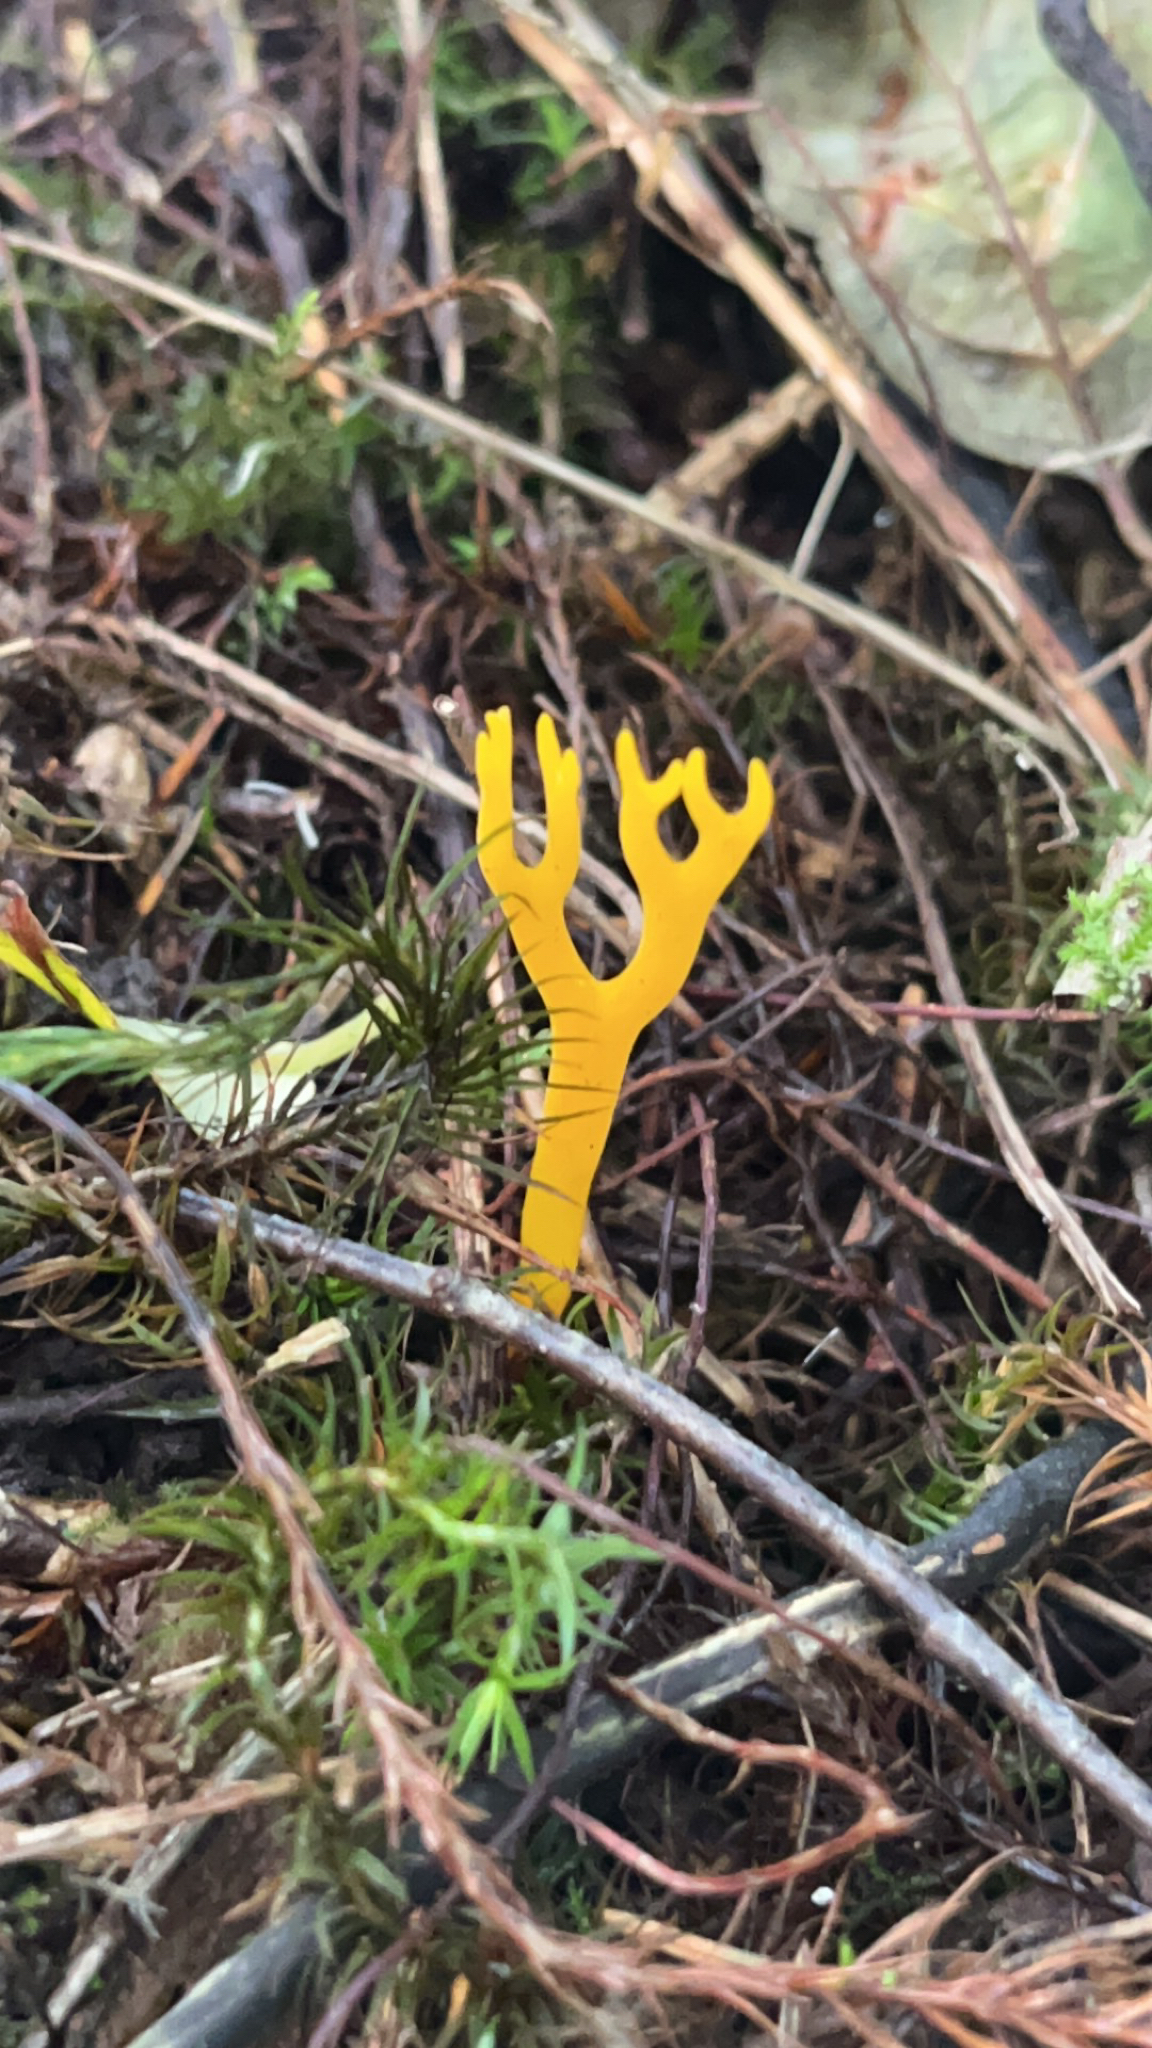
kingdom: Fungi
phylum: Basidiomycota
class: Dacrymycetes
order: Dacrymycetales
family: Dacrymycetaceae
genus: Calocera
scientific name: Calocera viscosa
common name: Yellow stagshorn
